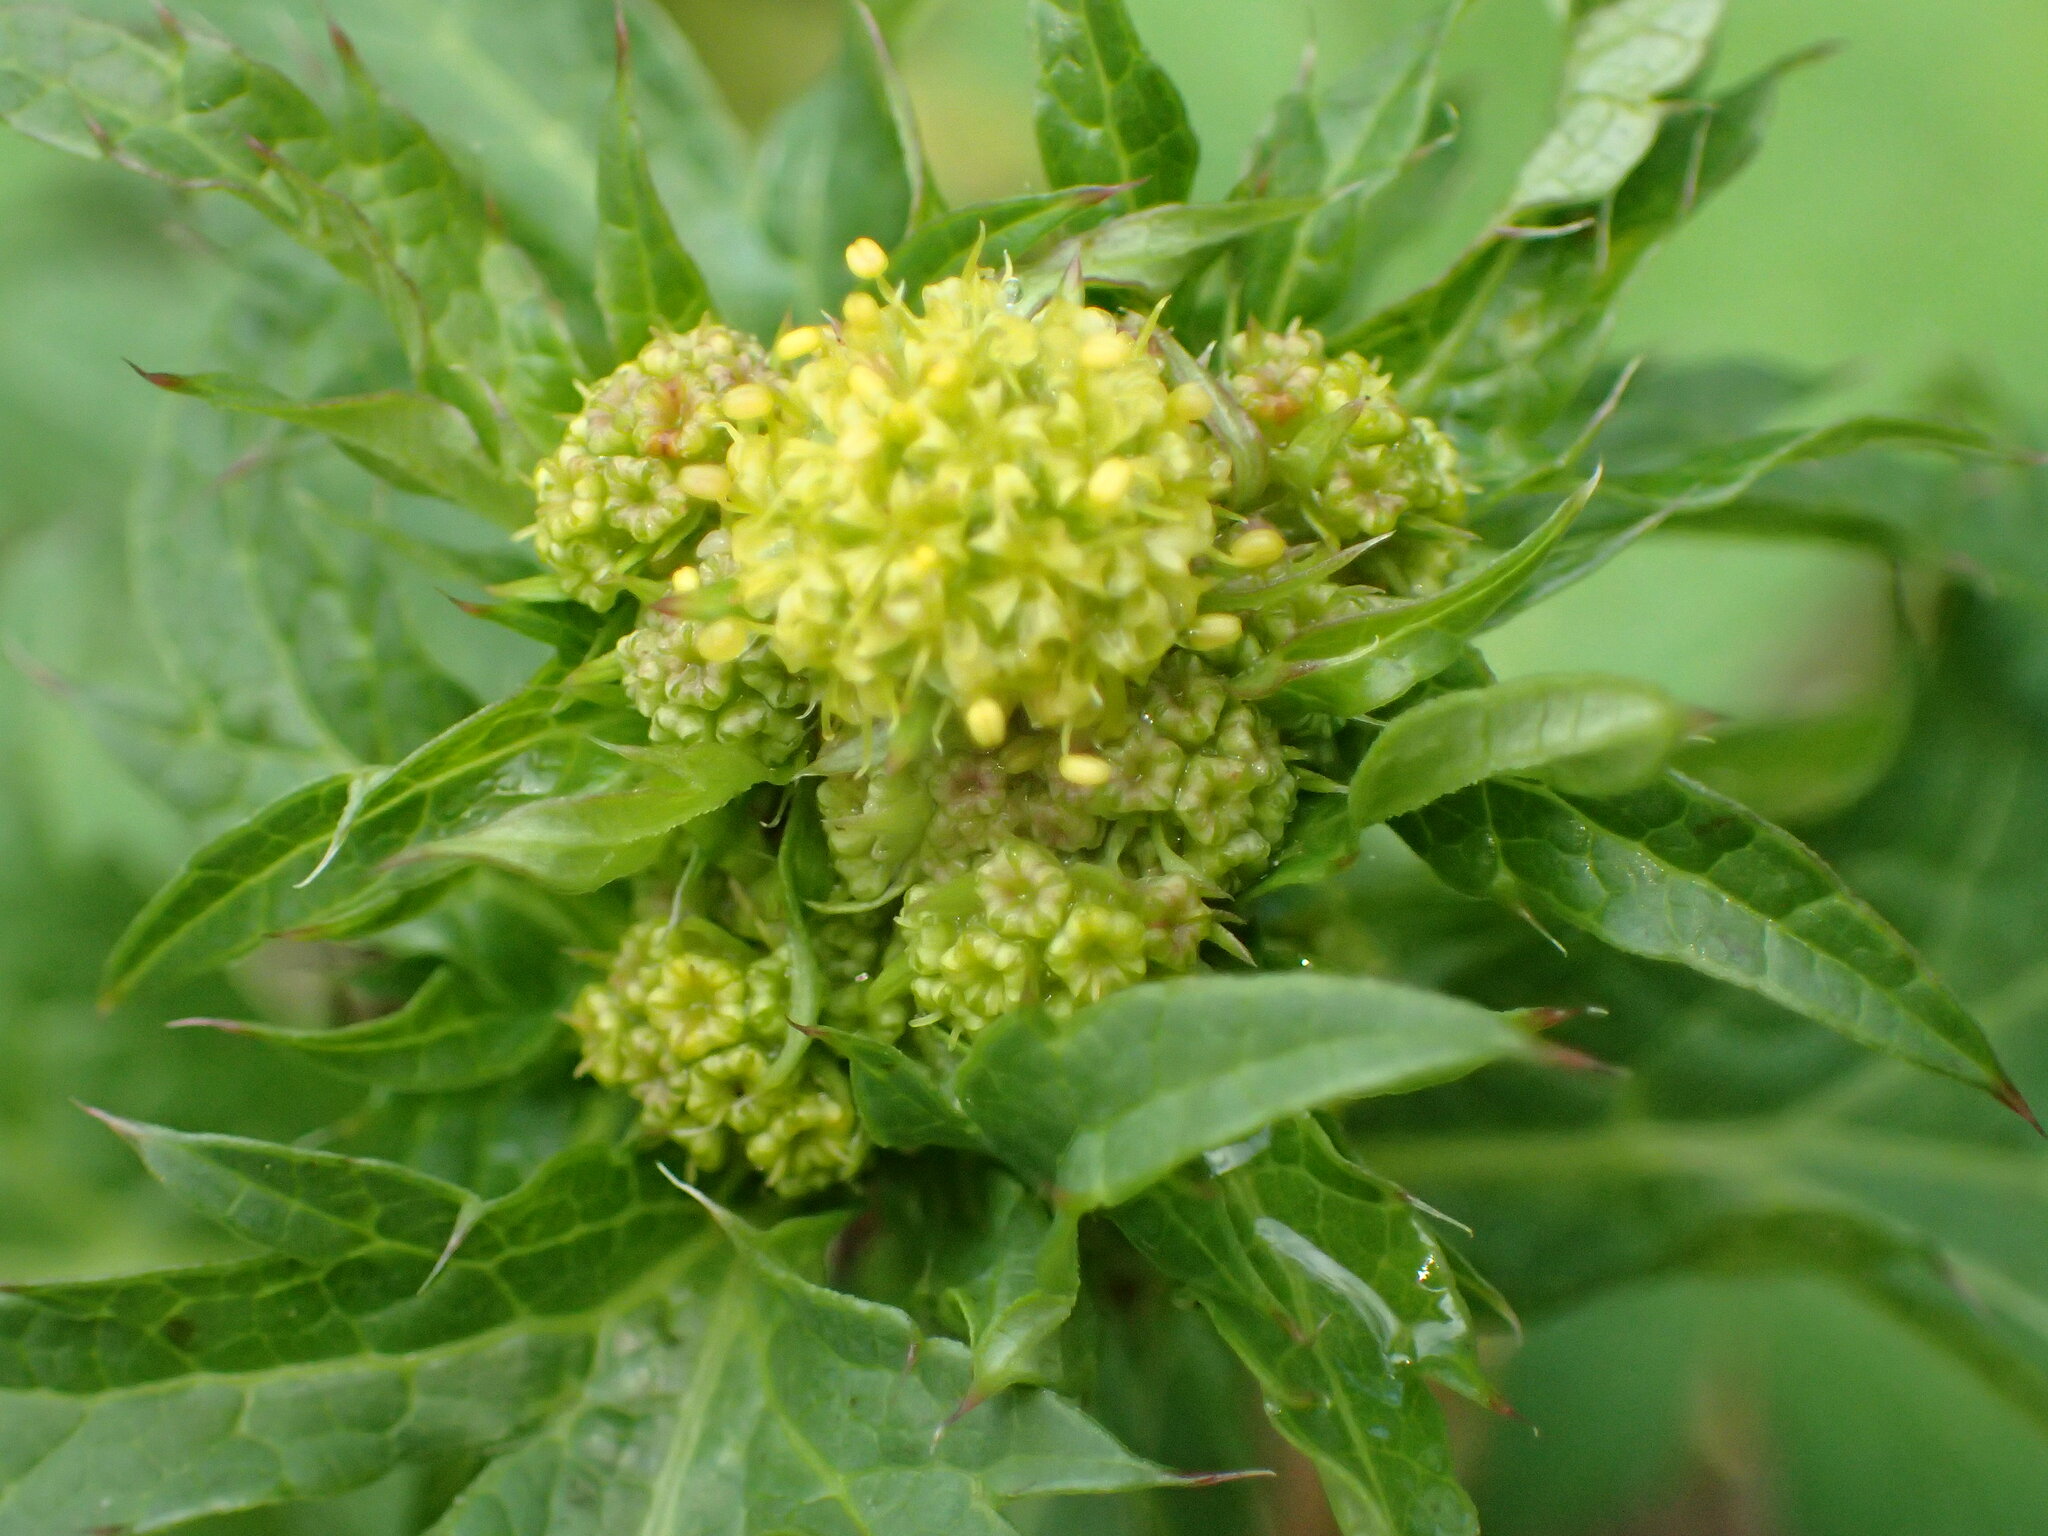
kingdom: Plantae
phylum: Tracheophyta
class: Magnoliopsida
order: Apiales
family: Apiaceae
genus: Sanicula
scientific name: Sanicula crassicaulis
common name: Western snakeroot
